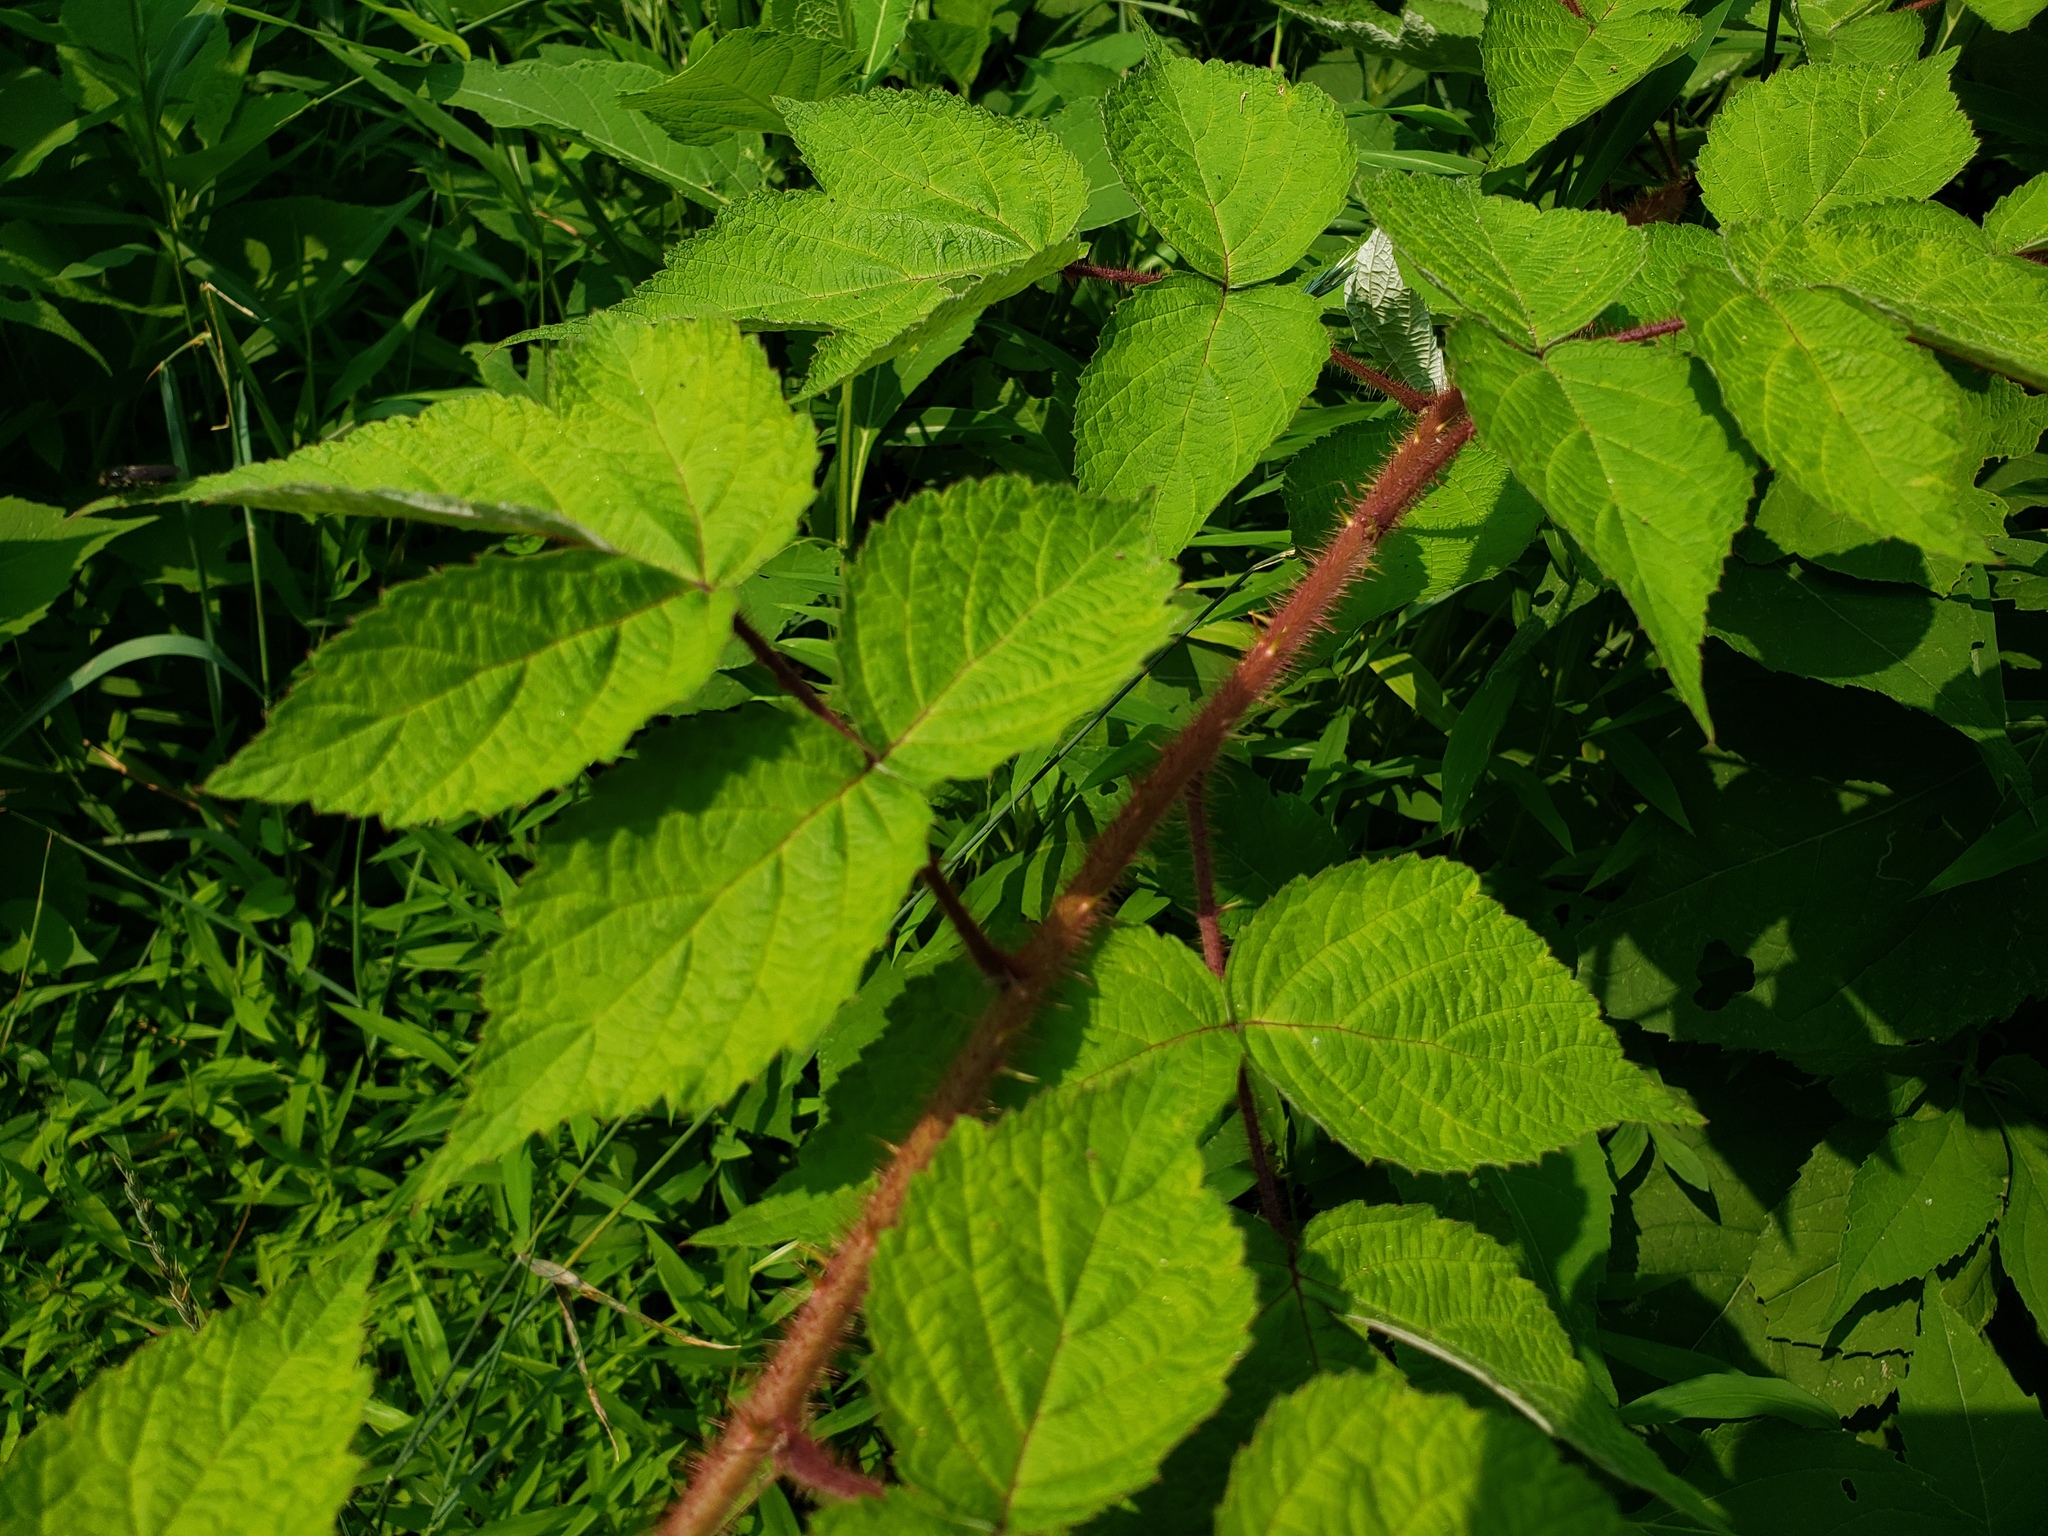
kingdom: Plantae
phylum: Tracheophyta
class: Magnoliopsida
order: Rosales
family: Rosaceae
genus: Rubus
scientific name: Rubus phoenicolasius
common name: Japanese wineberry
